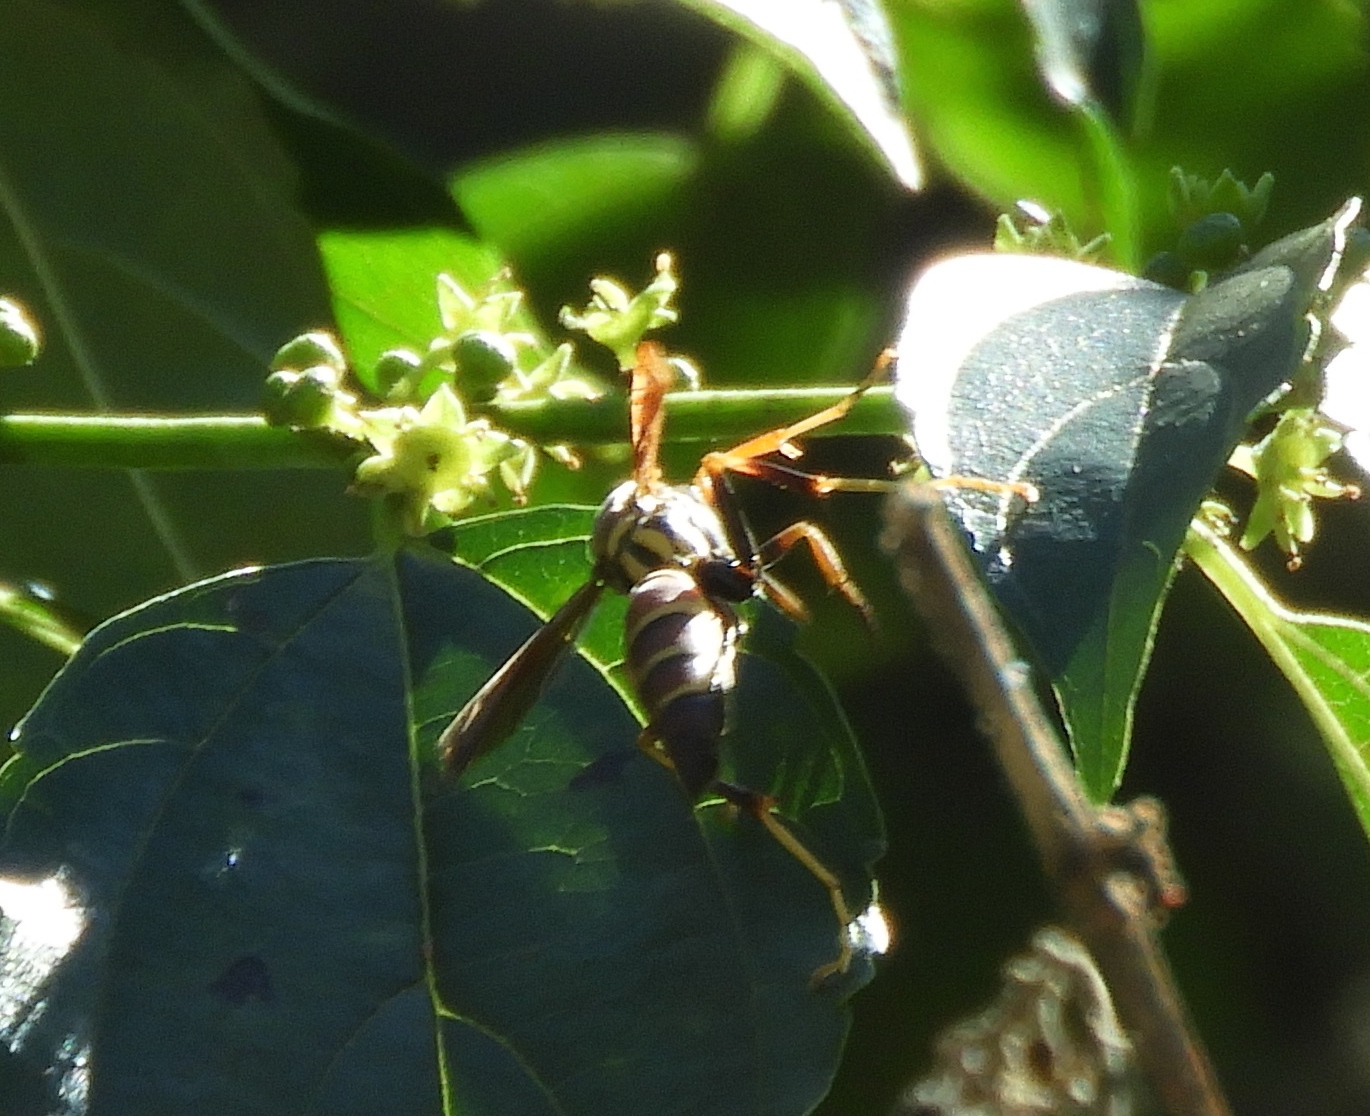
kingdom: Animalia
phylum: Arthropoda
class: Insecta
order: Hymenoptera
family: Eumenidae
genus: Polistes
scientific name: Polistes instabilis
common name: Unstable paper wasp
